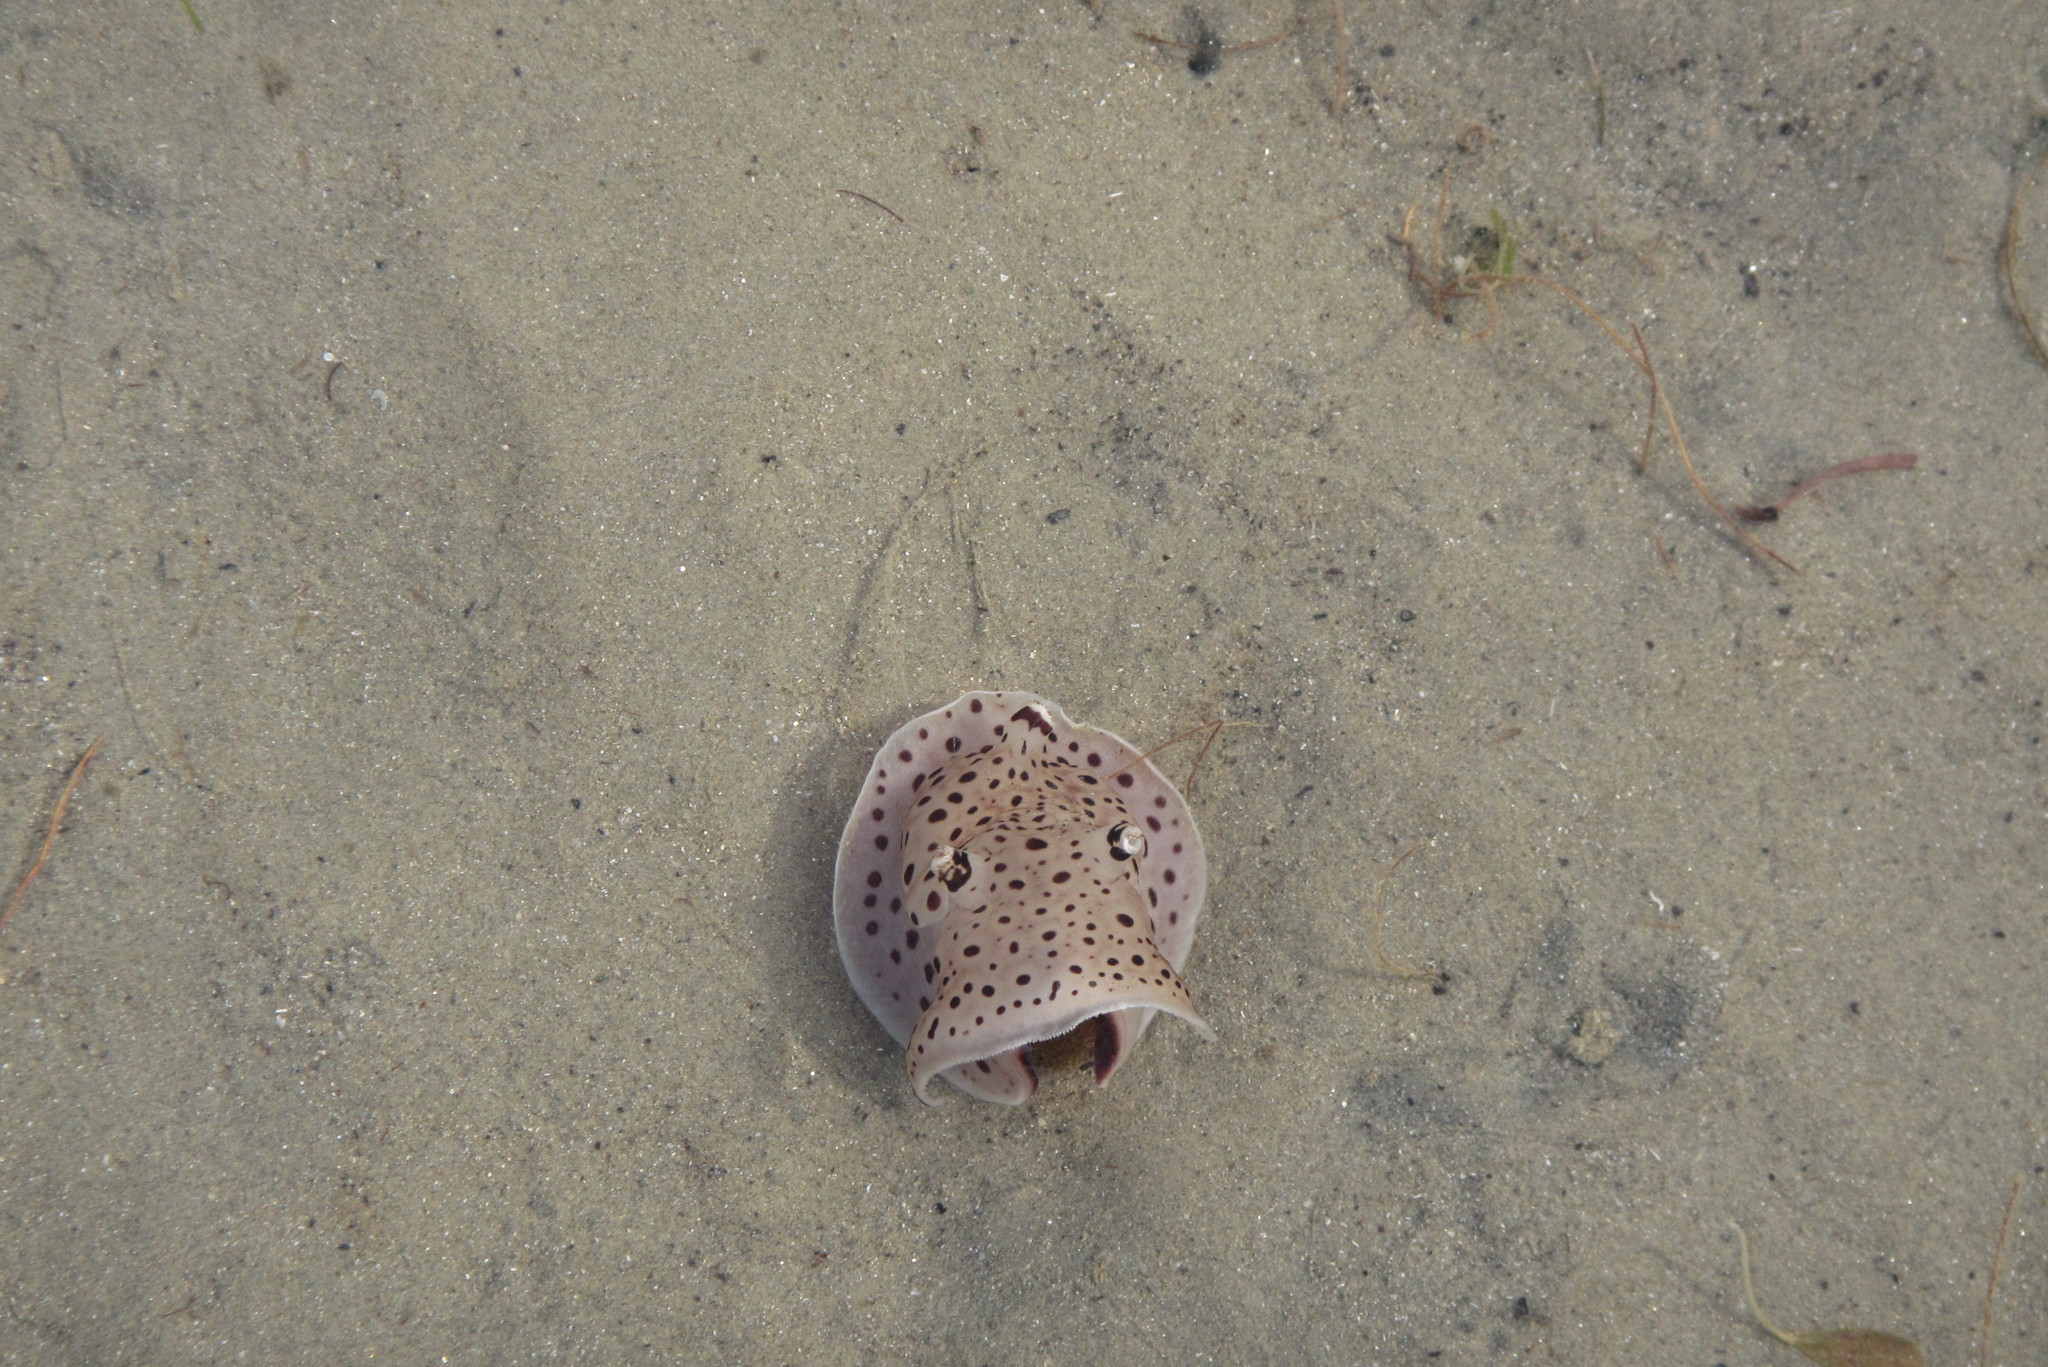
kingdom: Animalia
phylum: Mollusca
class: Gastropoda
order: Pleurobranchida
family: Pleurobranchaeidae
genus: Euselenops
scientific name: Euselenops luniceps
